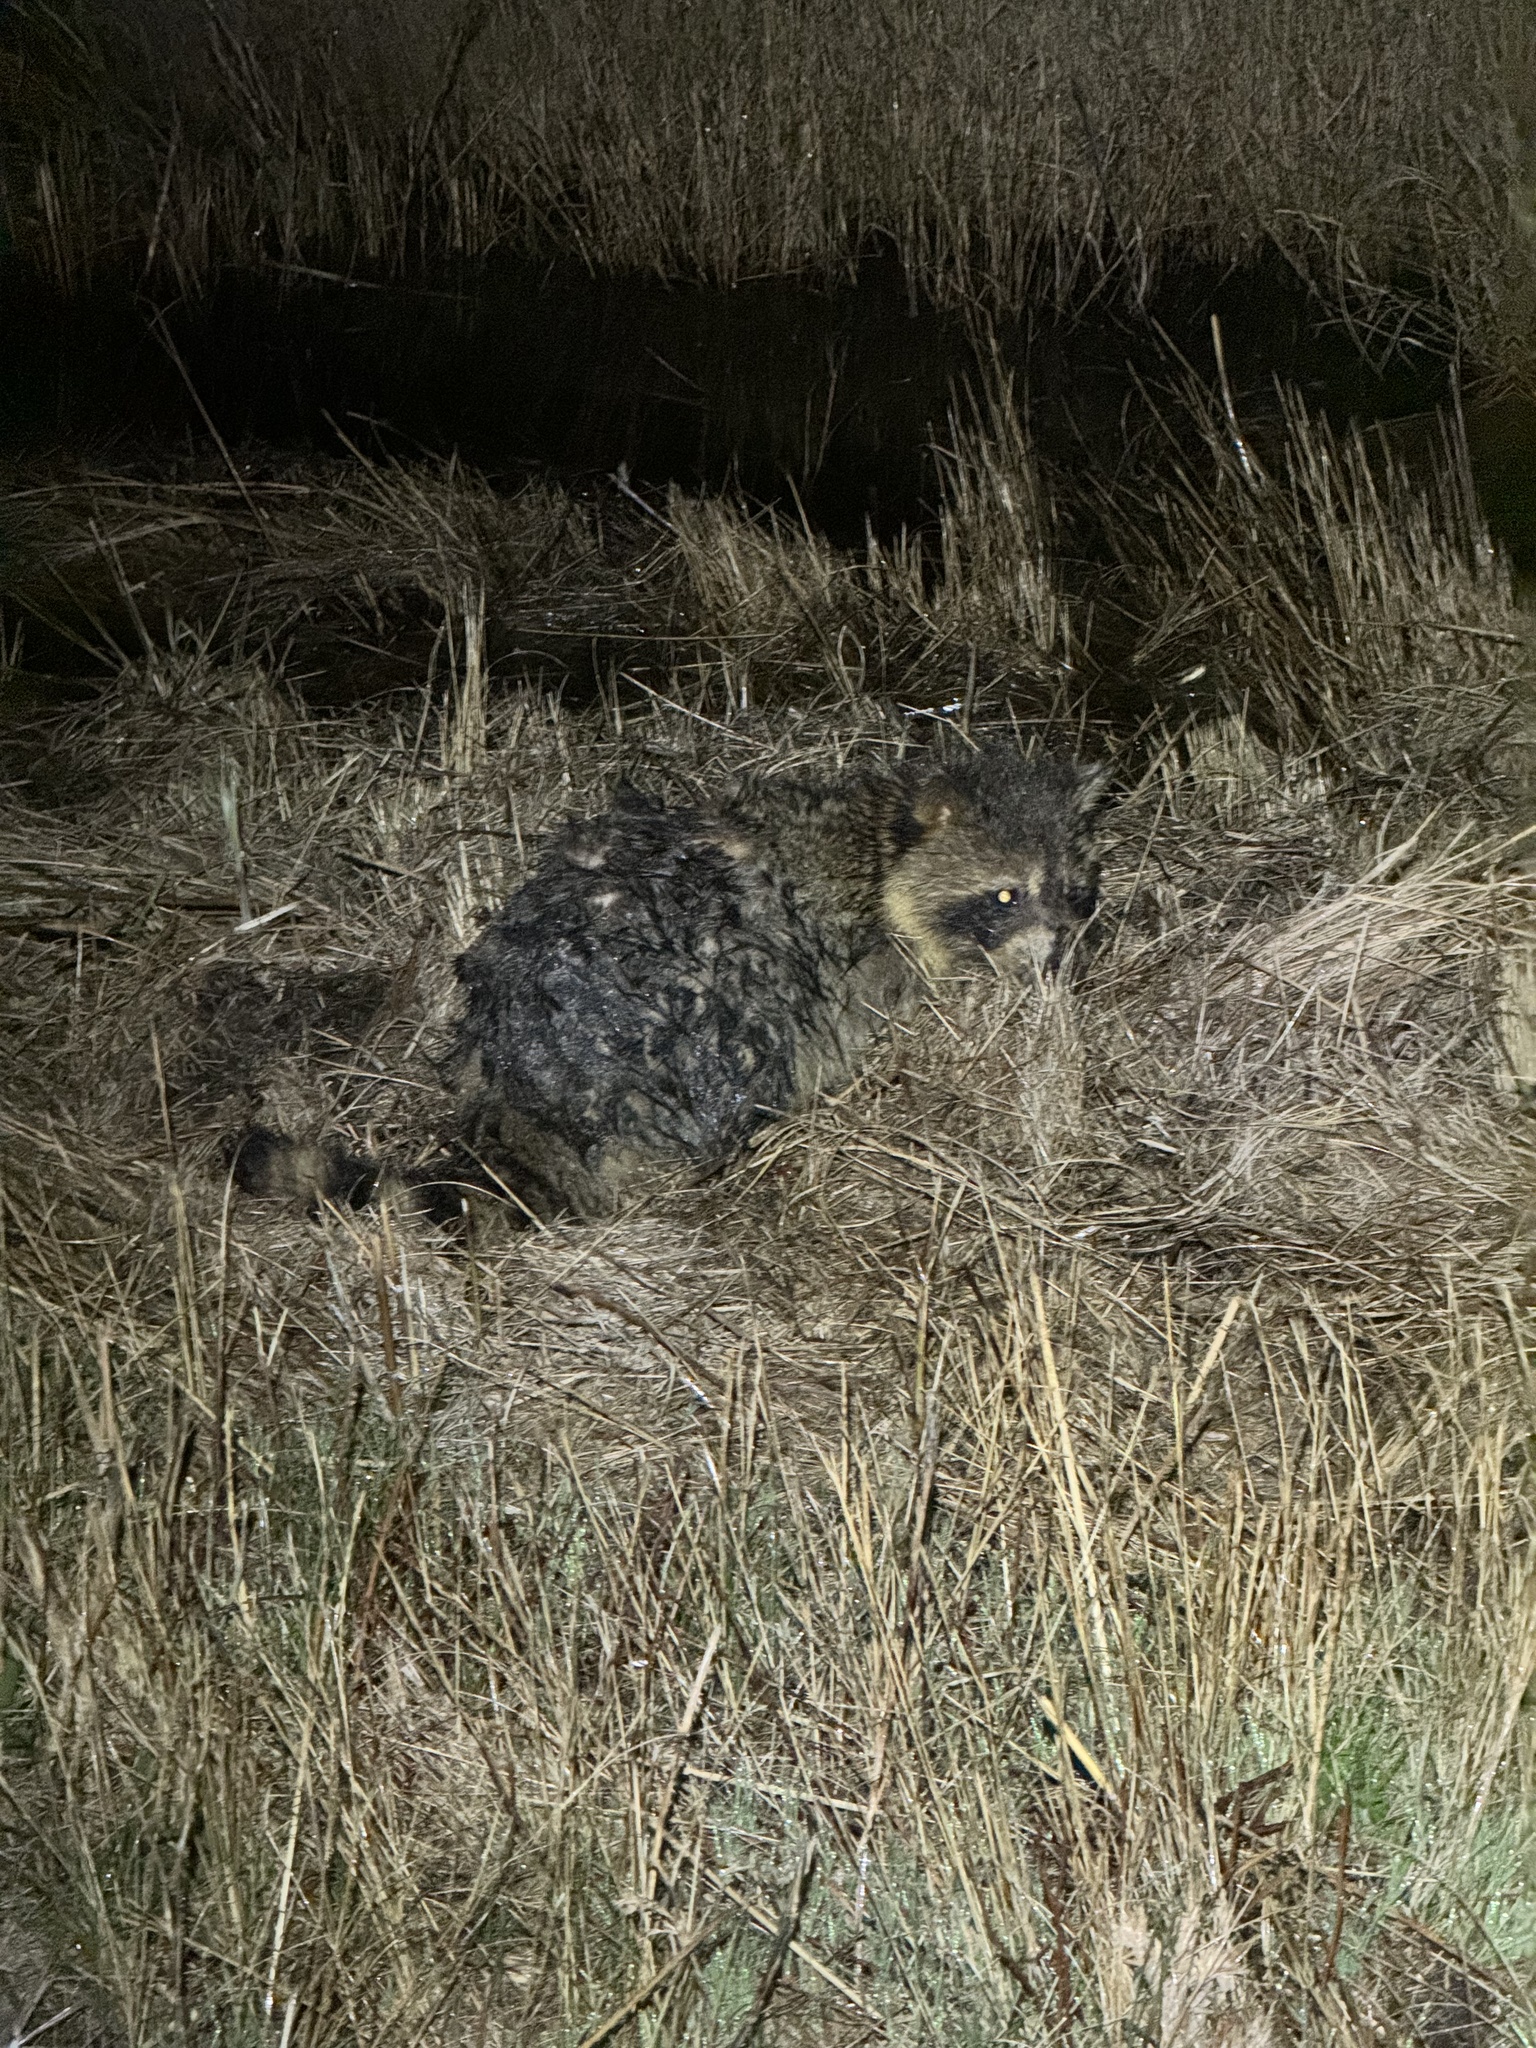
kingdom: Animalia
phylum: Chordata
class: Mammalia
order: Carnivora
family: Procyonidae
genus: Procyon
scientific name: Procyon lotor
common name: Raccoon
